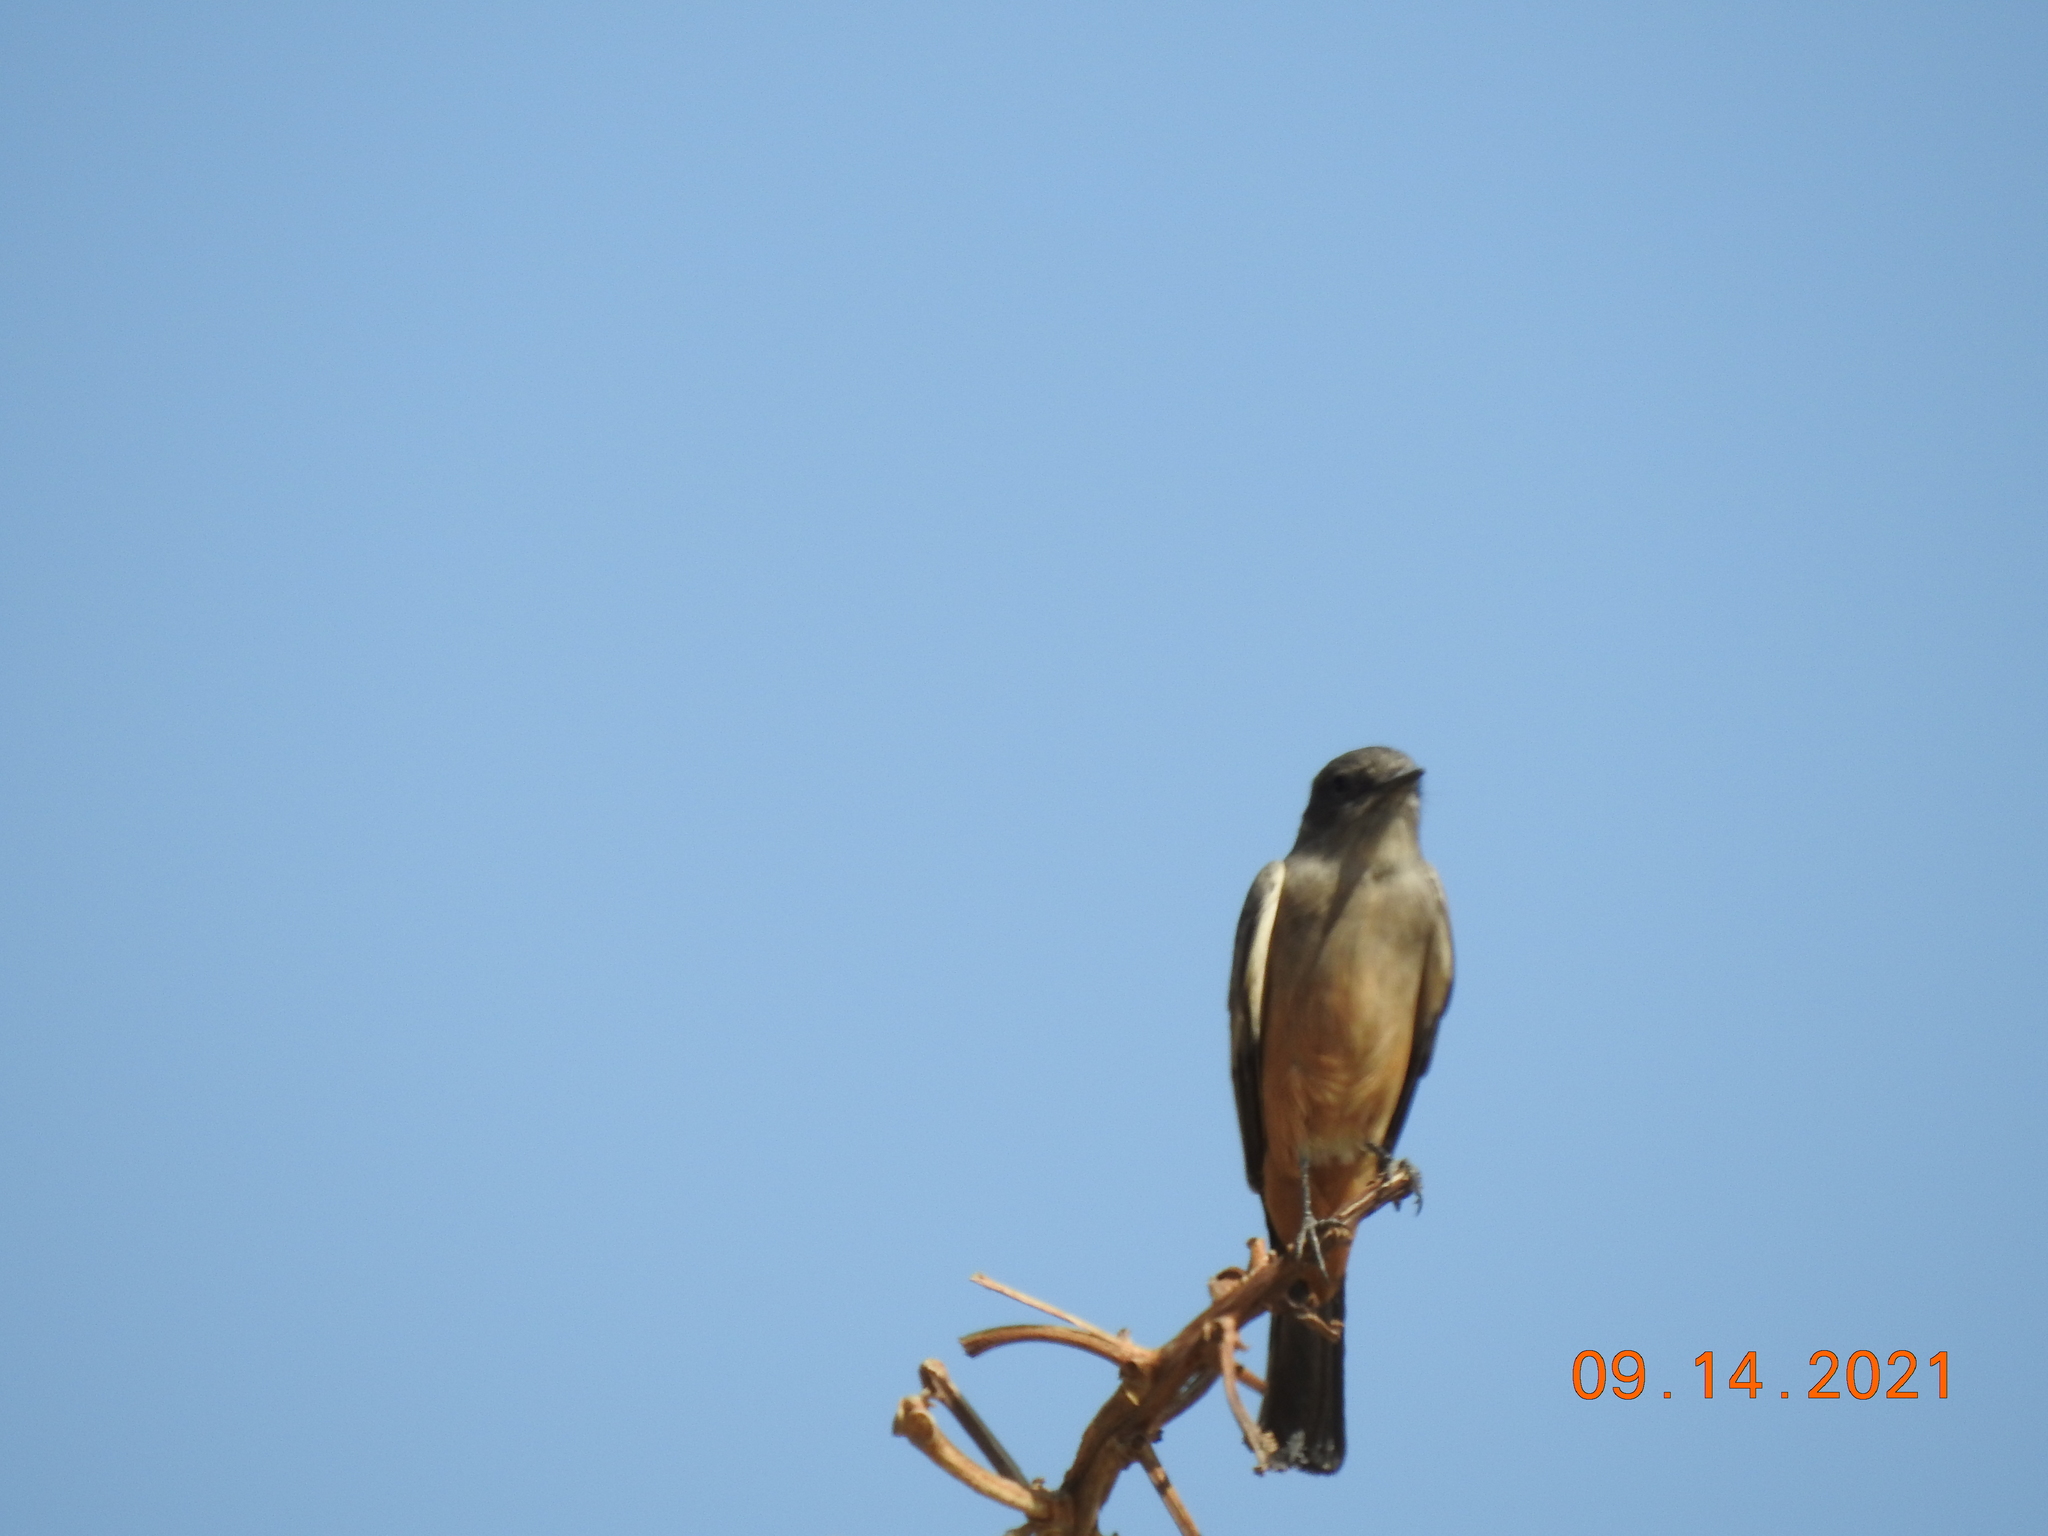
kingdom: Animalia
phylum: Chordata
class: Aves
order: Passeriformes
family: Tyrannidae
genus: Sayornis
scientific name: Sayornis saya
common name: Say's phoebe
